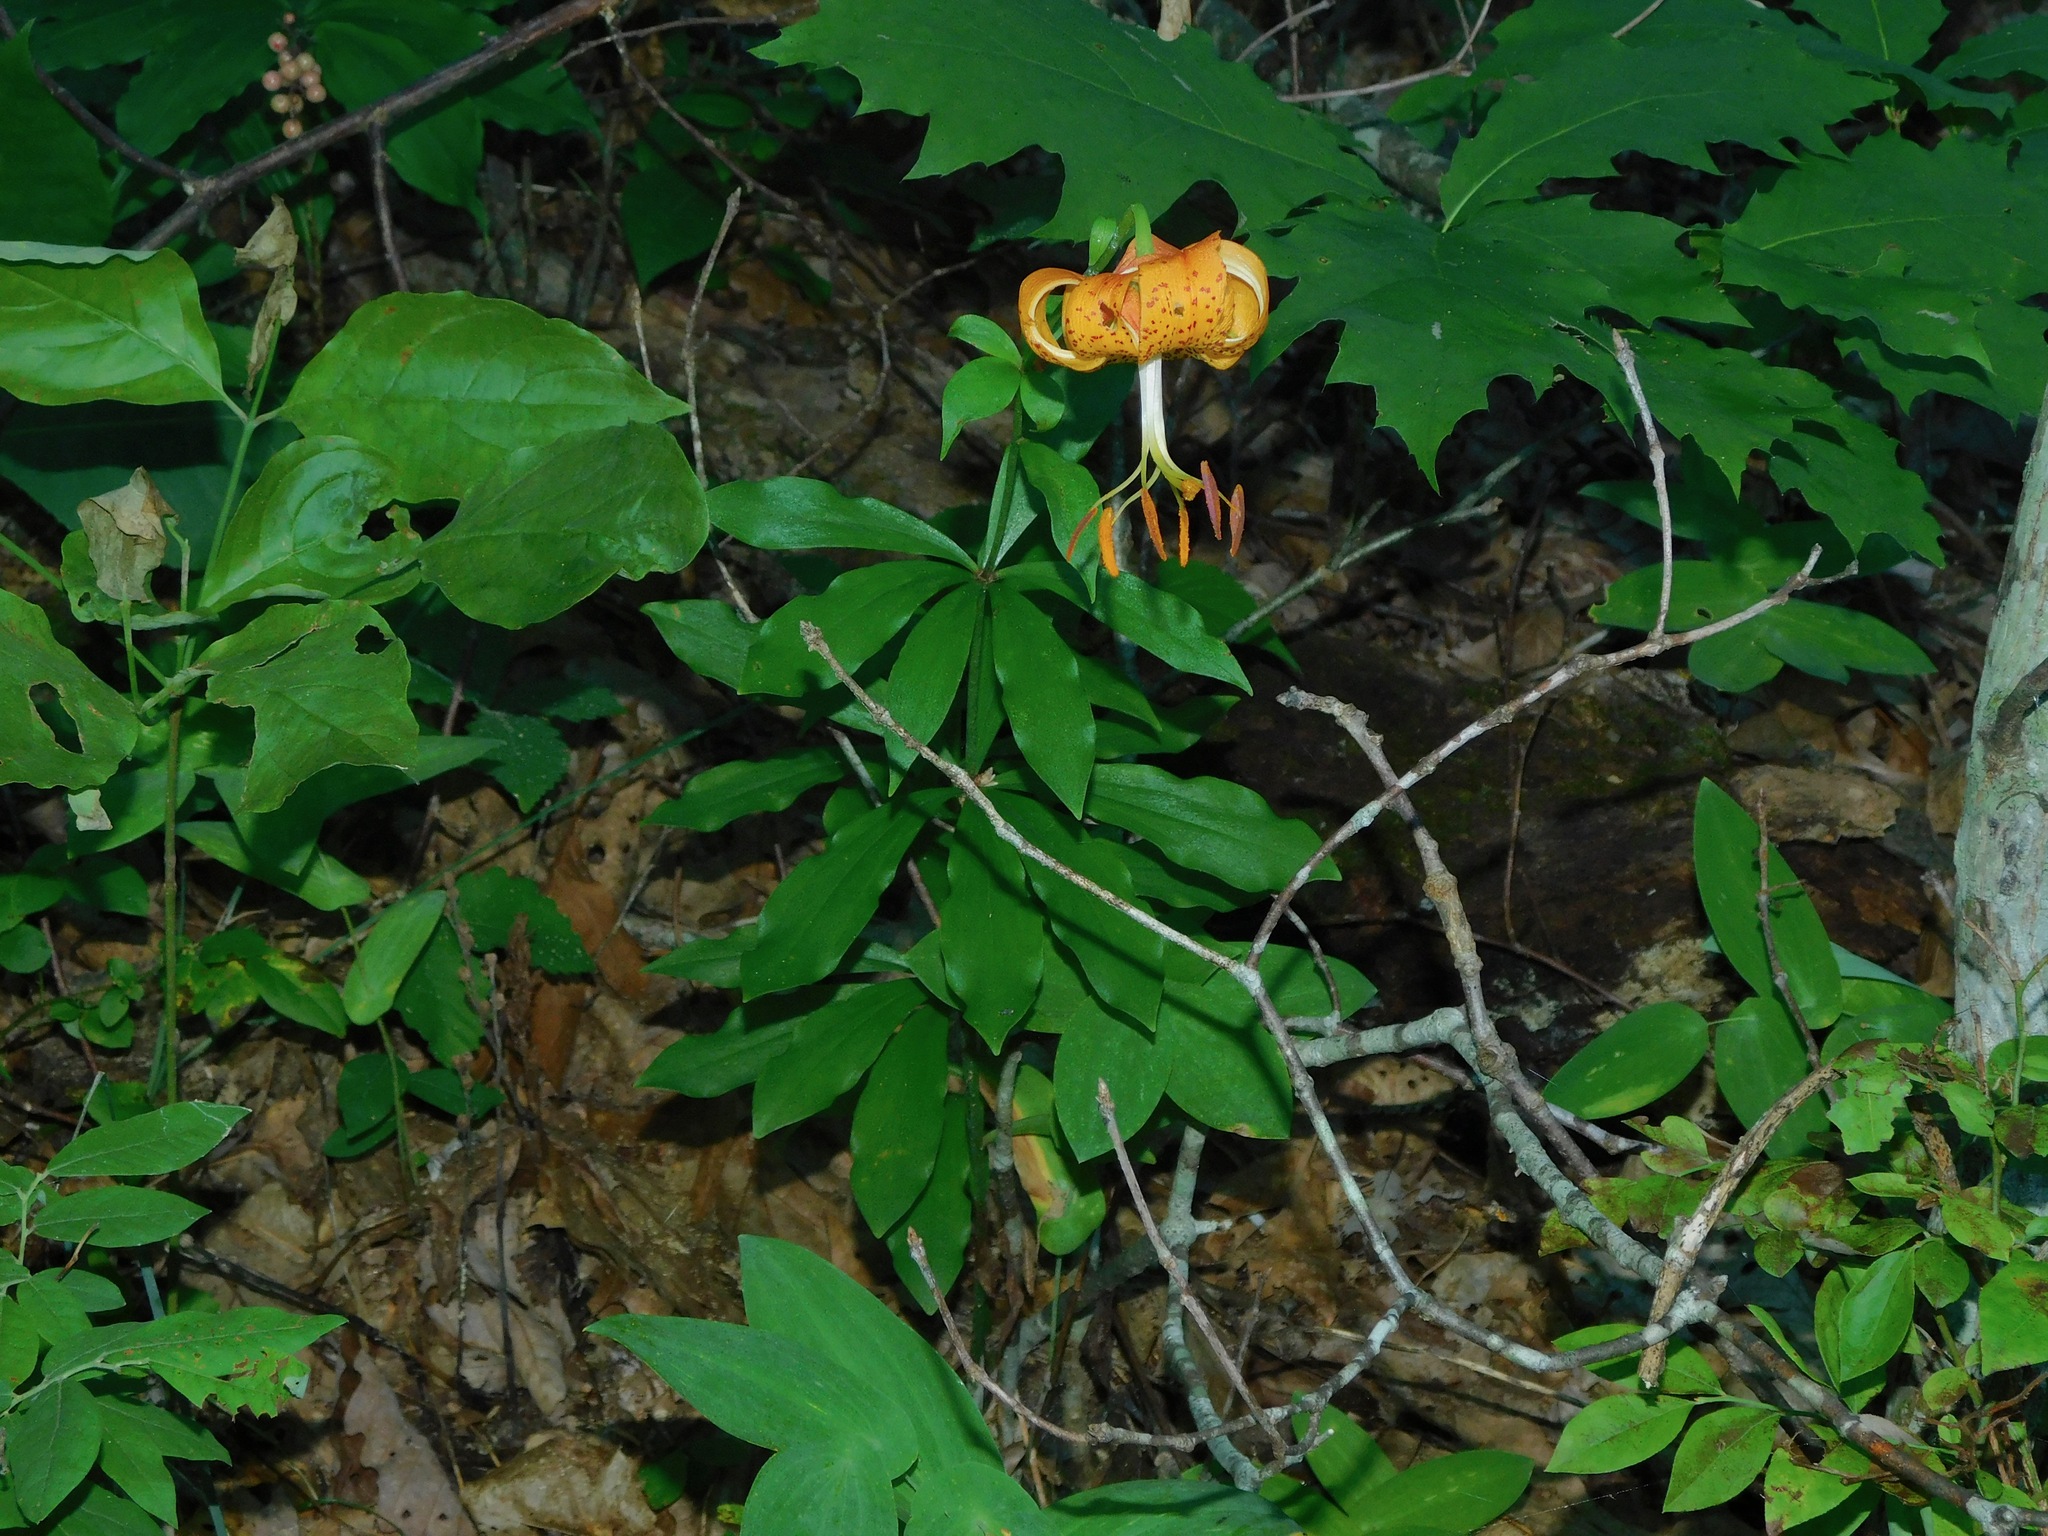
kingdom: Plantae
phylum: Tracheophyta
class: Liliopsida
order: Liliales
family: Liliaceae
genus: Lilium
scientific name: Lilium michauxii
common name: Carolina lily
